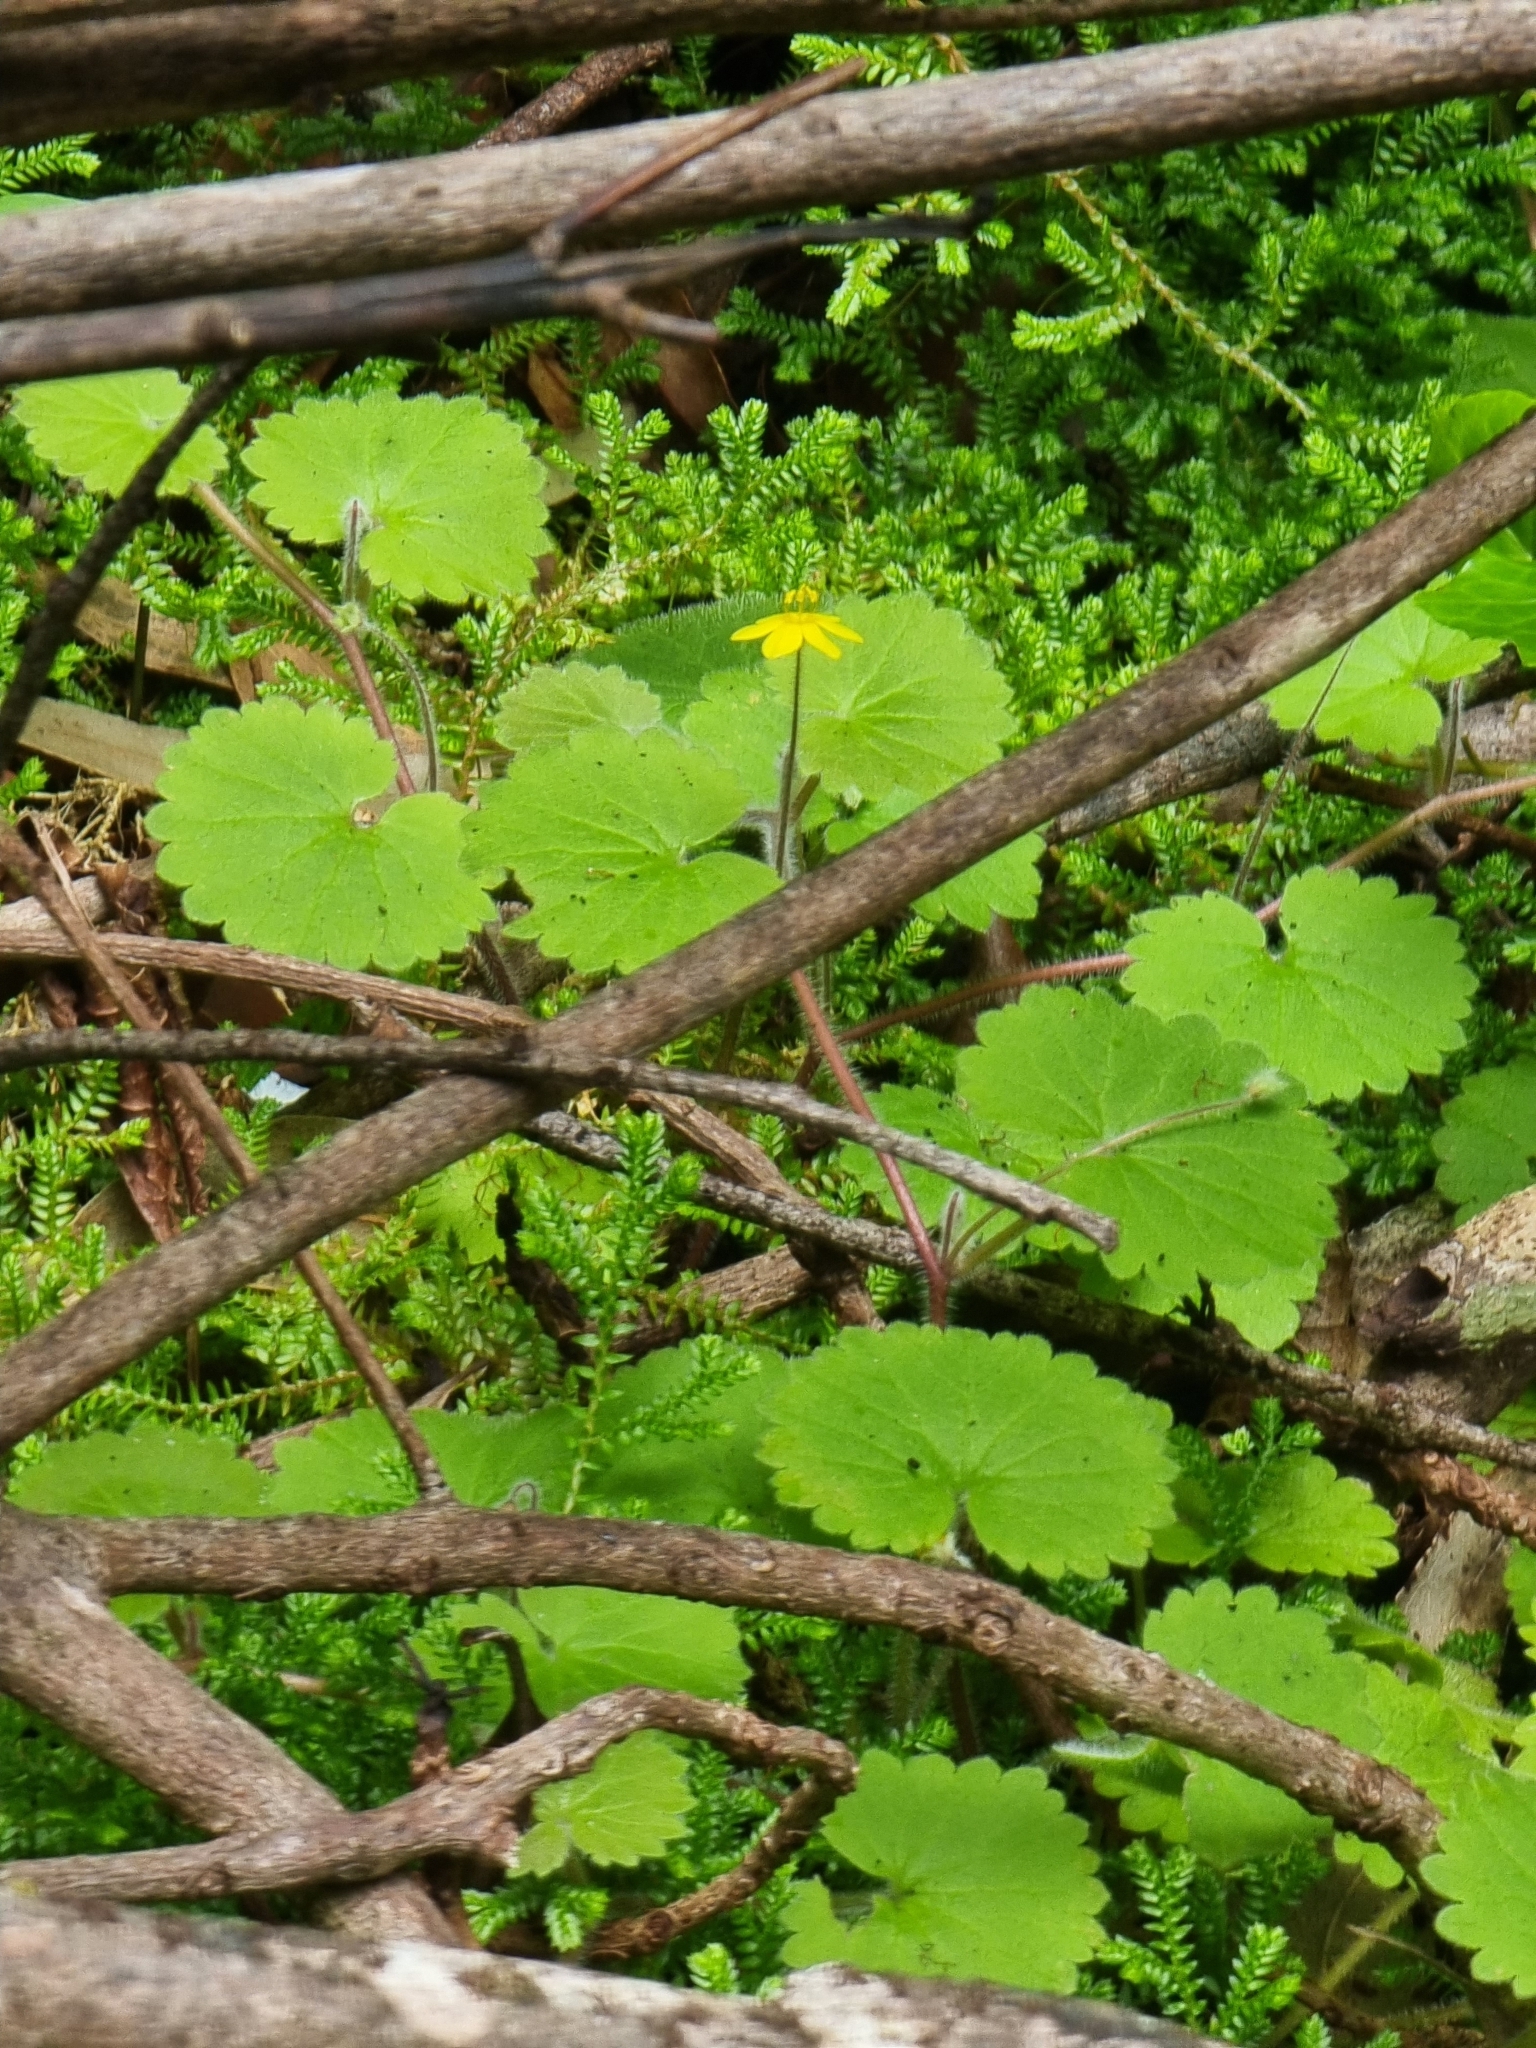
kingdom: Plantae
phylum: Tracheophyta
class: Magnoliopsida
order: Lamiales
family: Plantaginaceae
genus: Sibthorpia
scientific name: Sibthorpia peregrina
